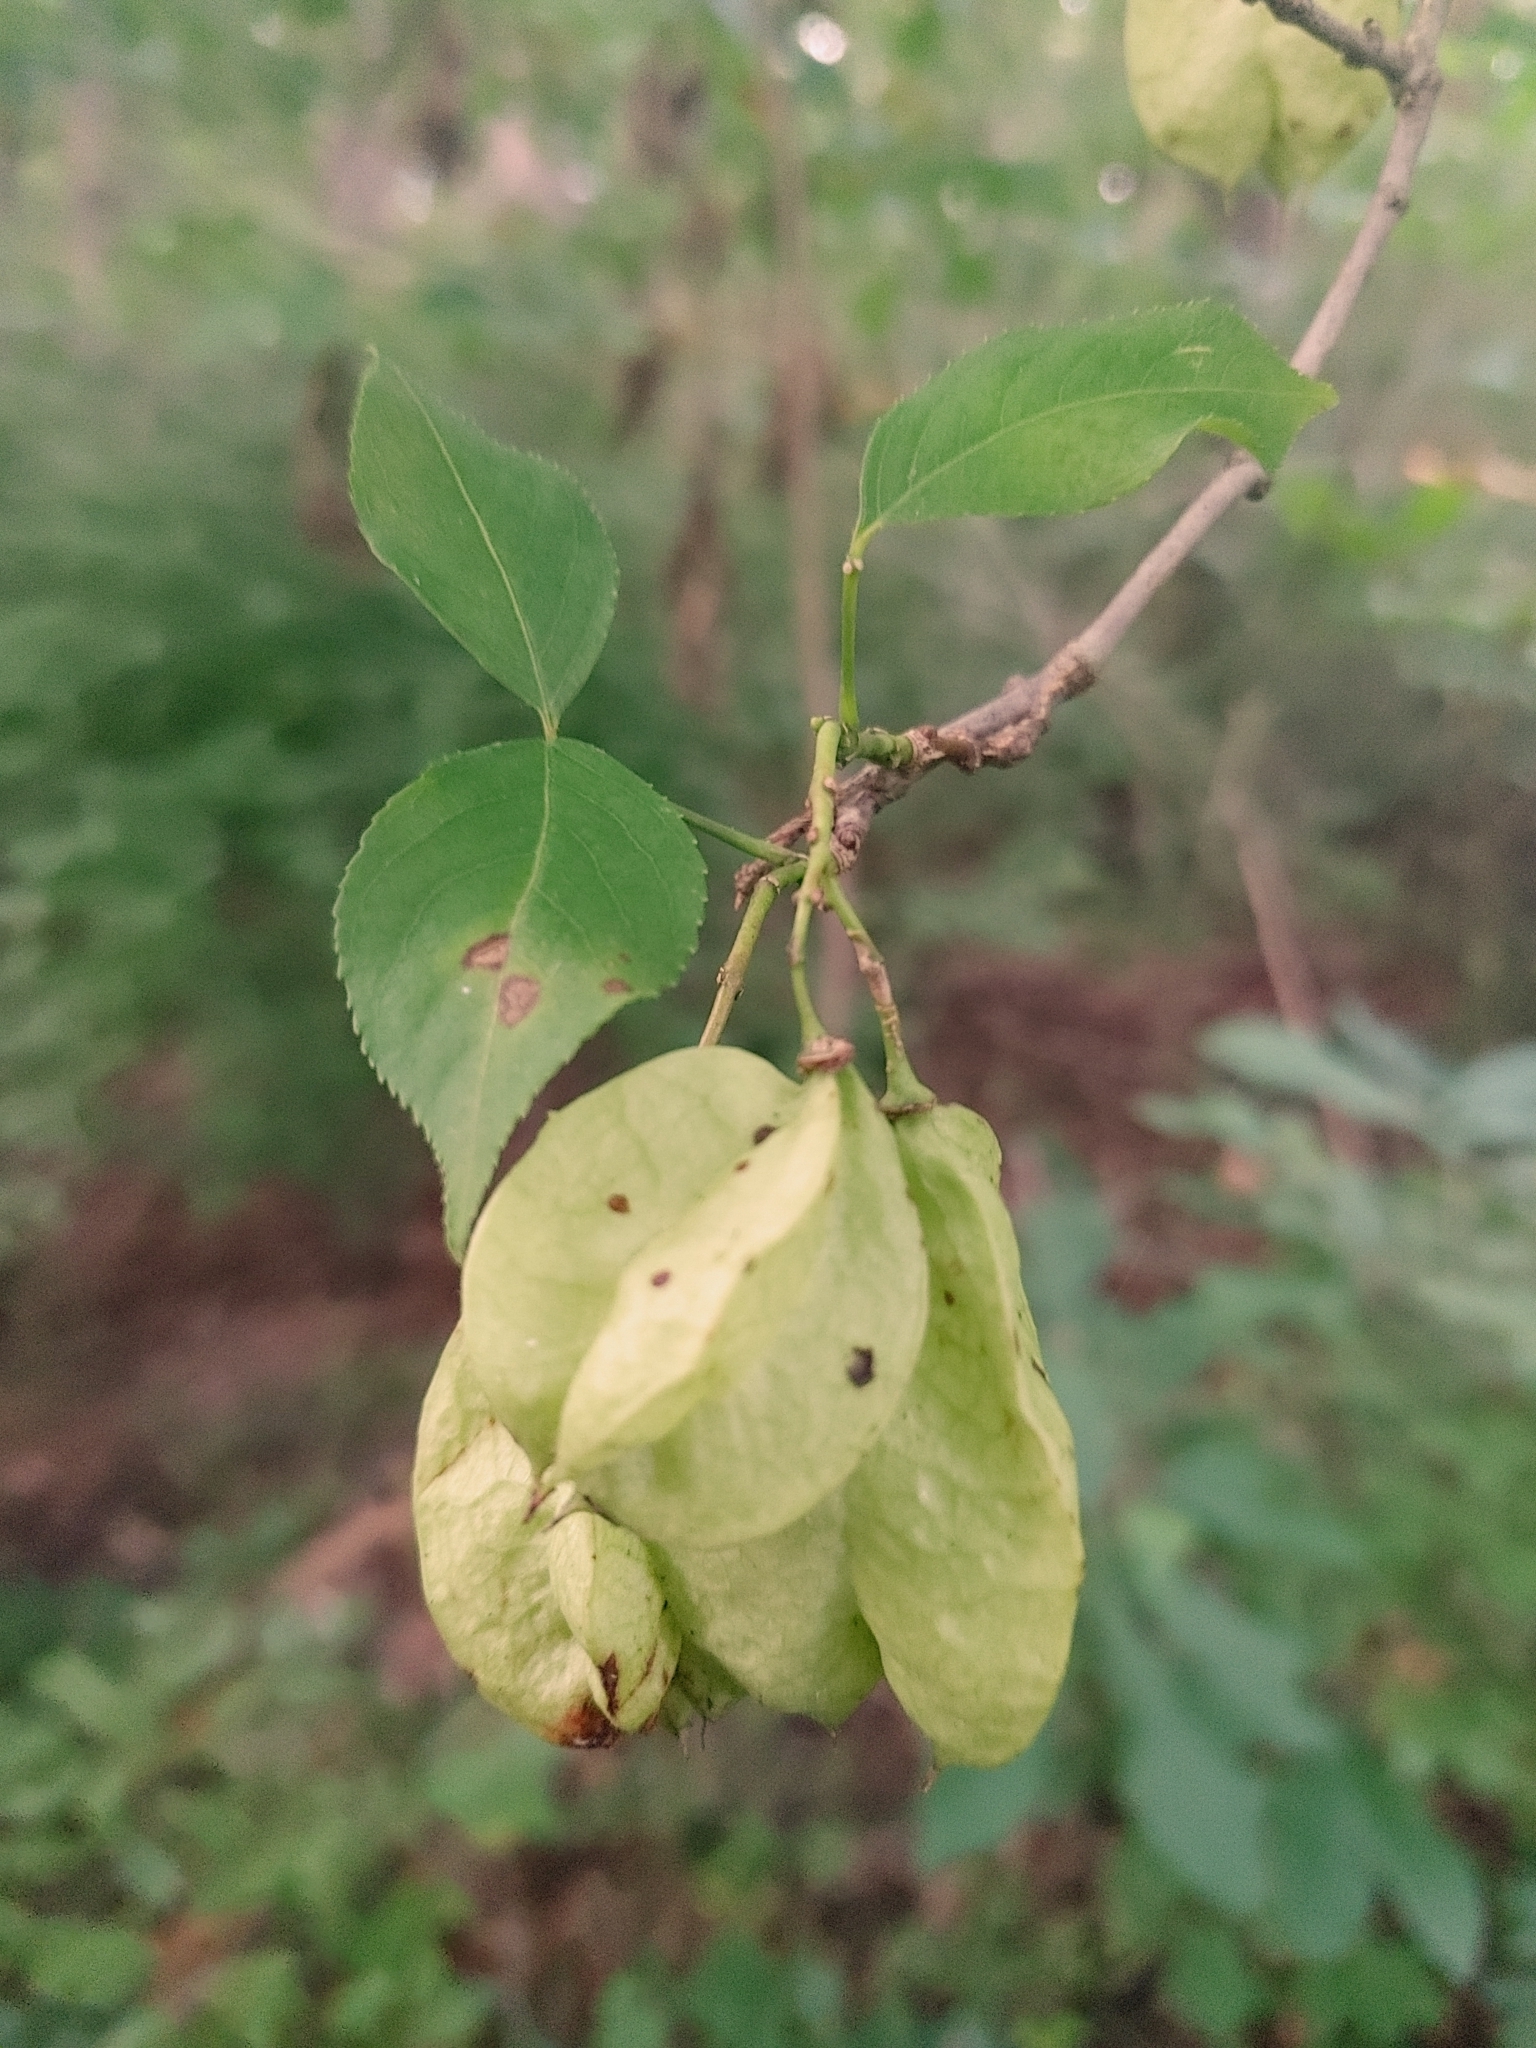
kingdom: Plantae
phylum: Tracheophyta
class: Magnoliopsida
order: Crossosomatales
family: Staphyleaceae
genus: Staphylea
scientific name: Staphylea trifolia
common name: American bladdernut
